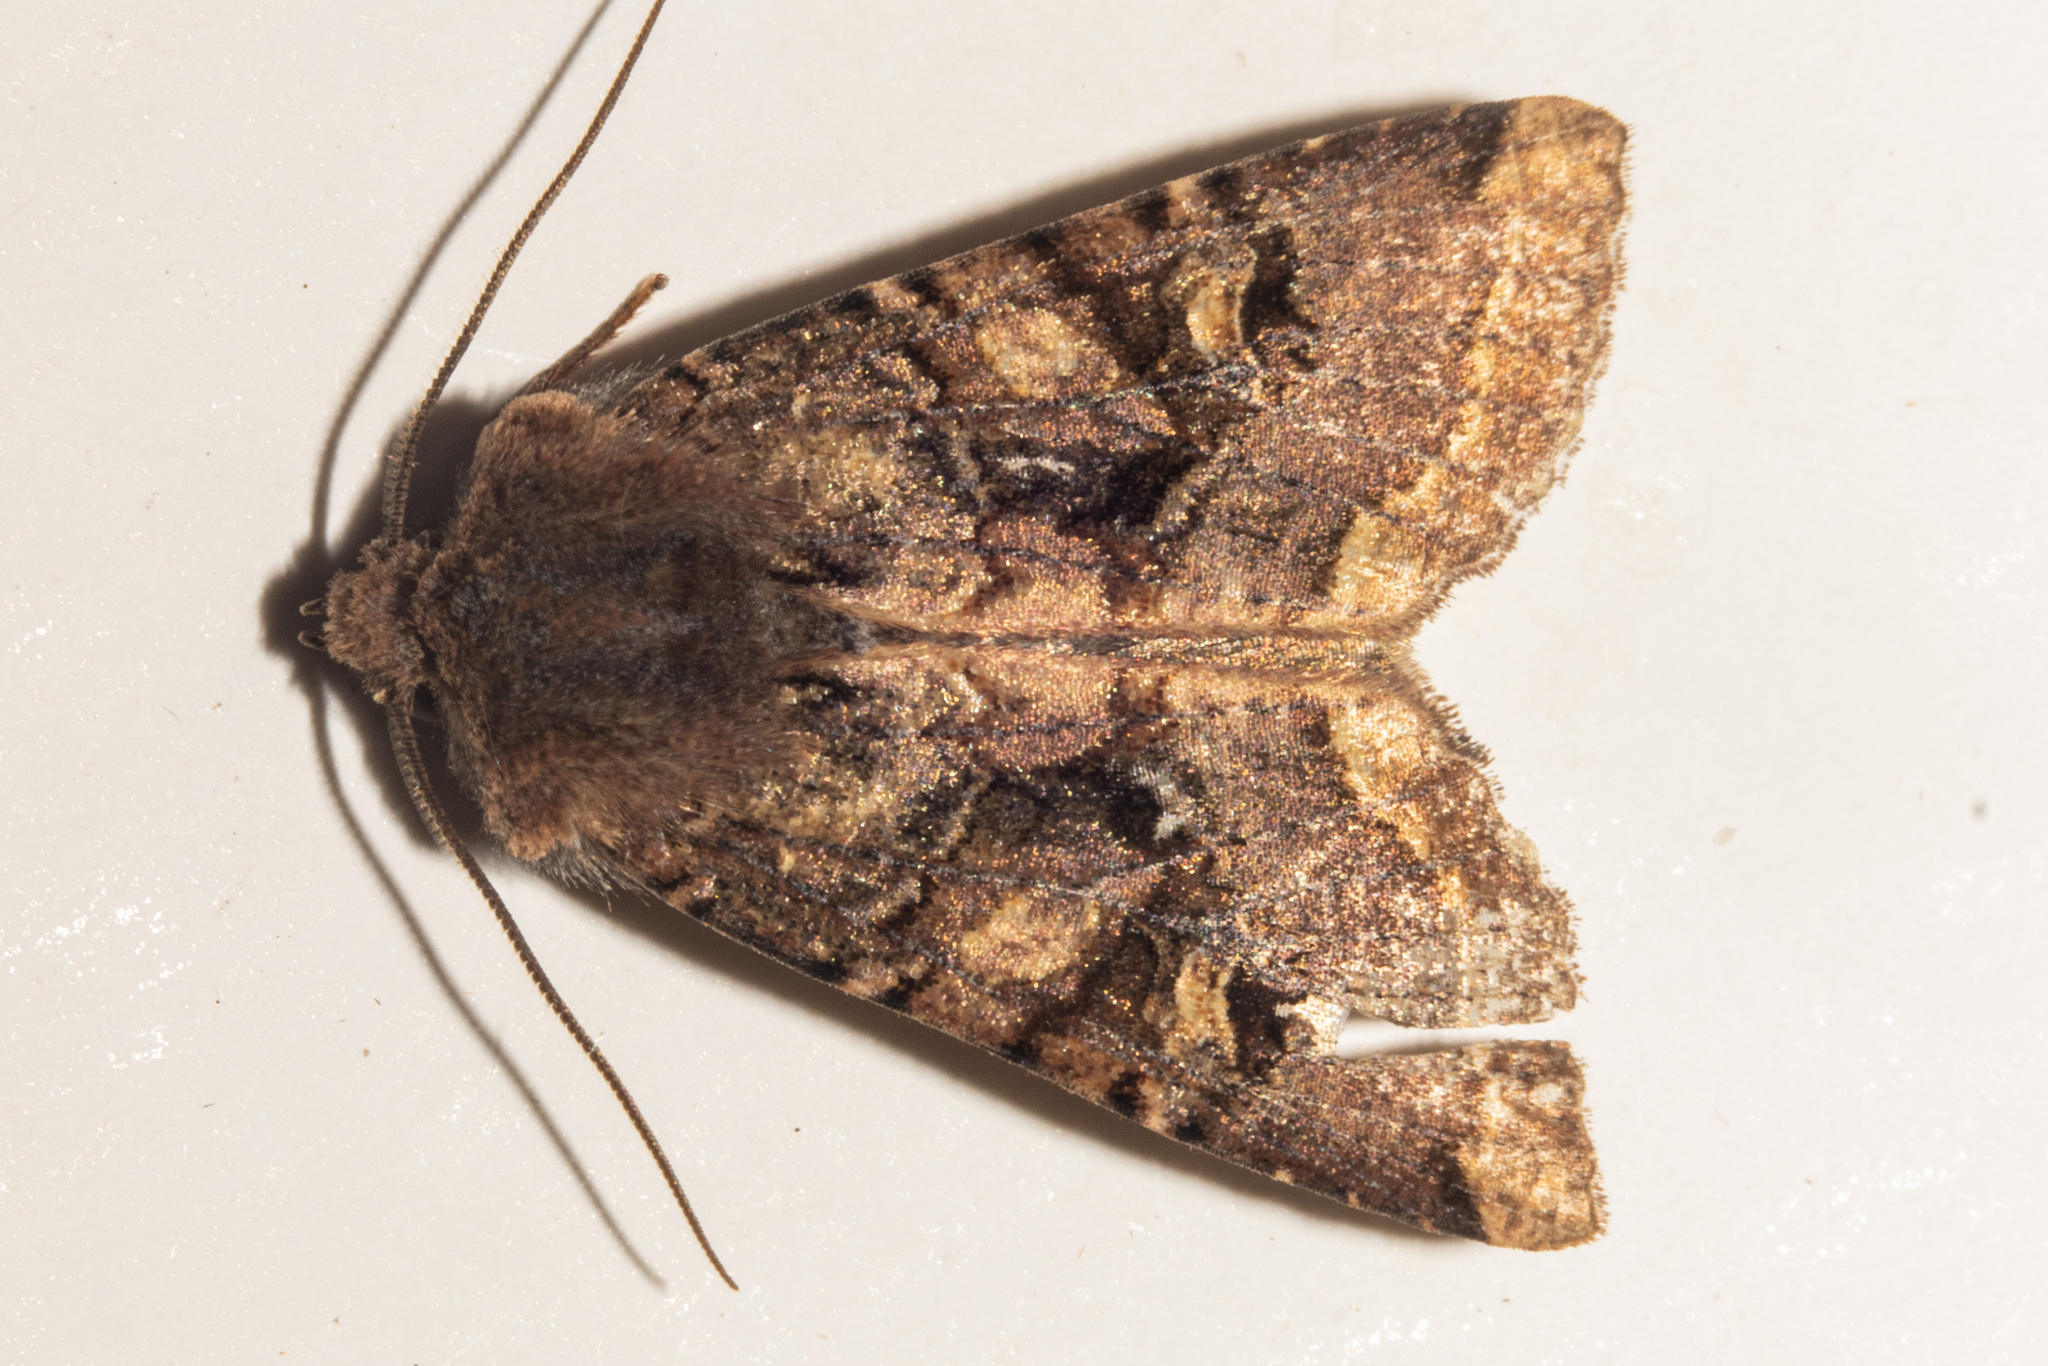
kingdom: Animalia
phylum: Arthropoda
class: Insecta
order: Lepidoptera
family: Noctuidae
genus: Meterana
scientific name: Meterana tartaraea
